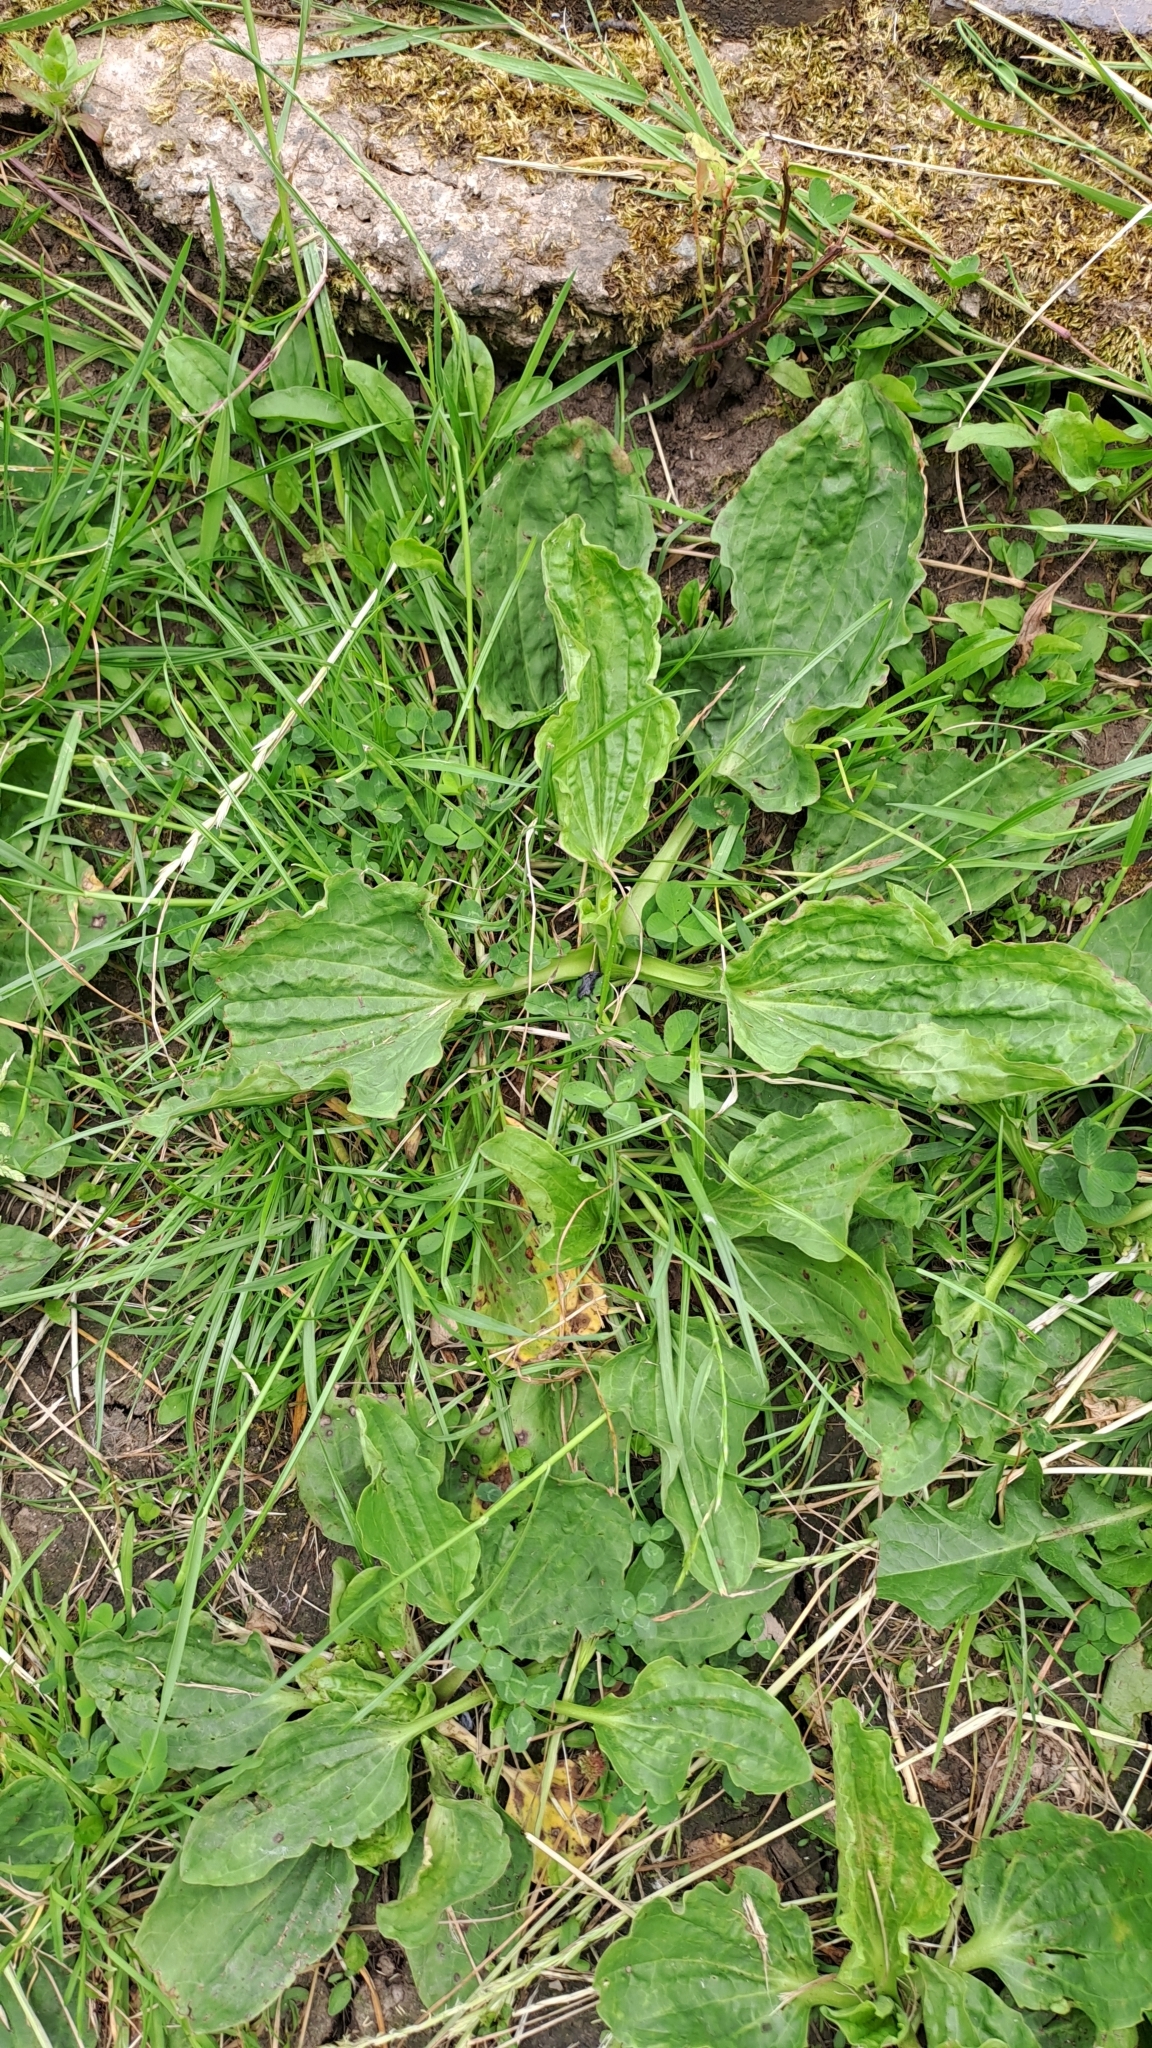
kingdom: Plantae
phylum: Tracheophyta
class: Magnoliopsida
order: Lamiales
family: Plantaginaceae
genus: Plantago
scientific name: Plantago major
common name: Common plantain
